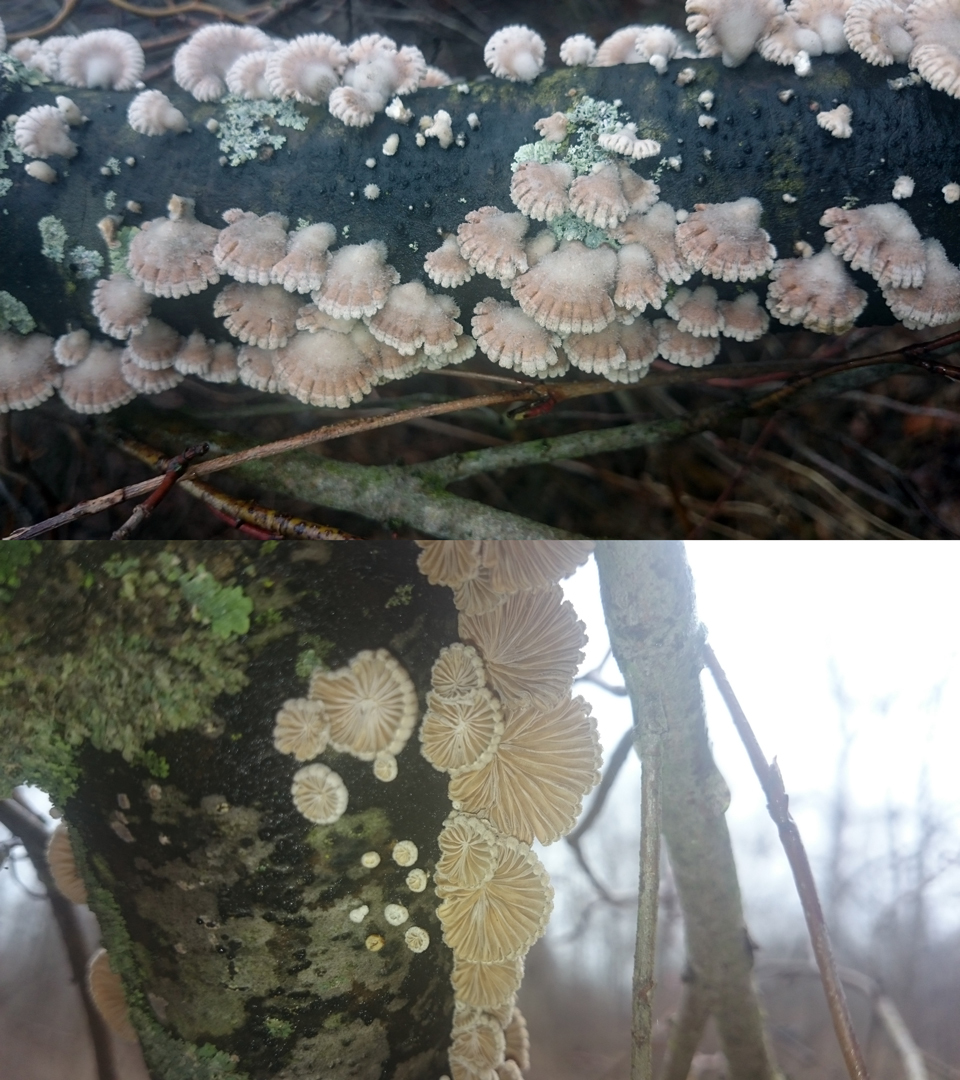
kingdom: Fungi
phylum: Basidiomycota
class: Agaricomycetes
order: Agaricales
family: Schizophyllaceae
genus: Schizophyllum
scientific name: Schizophyllum commune
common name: Common porecrust
